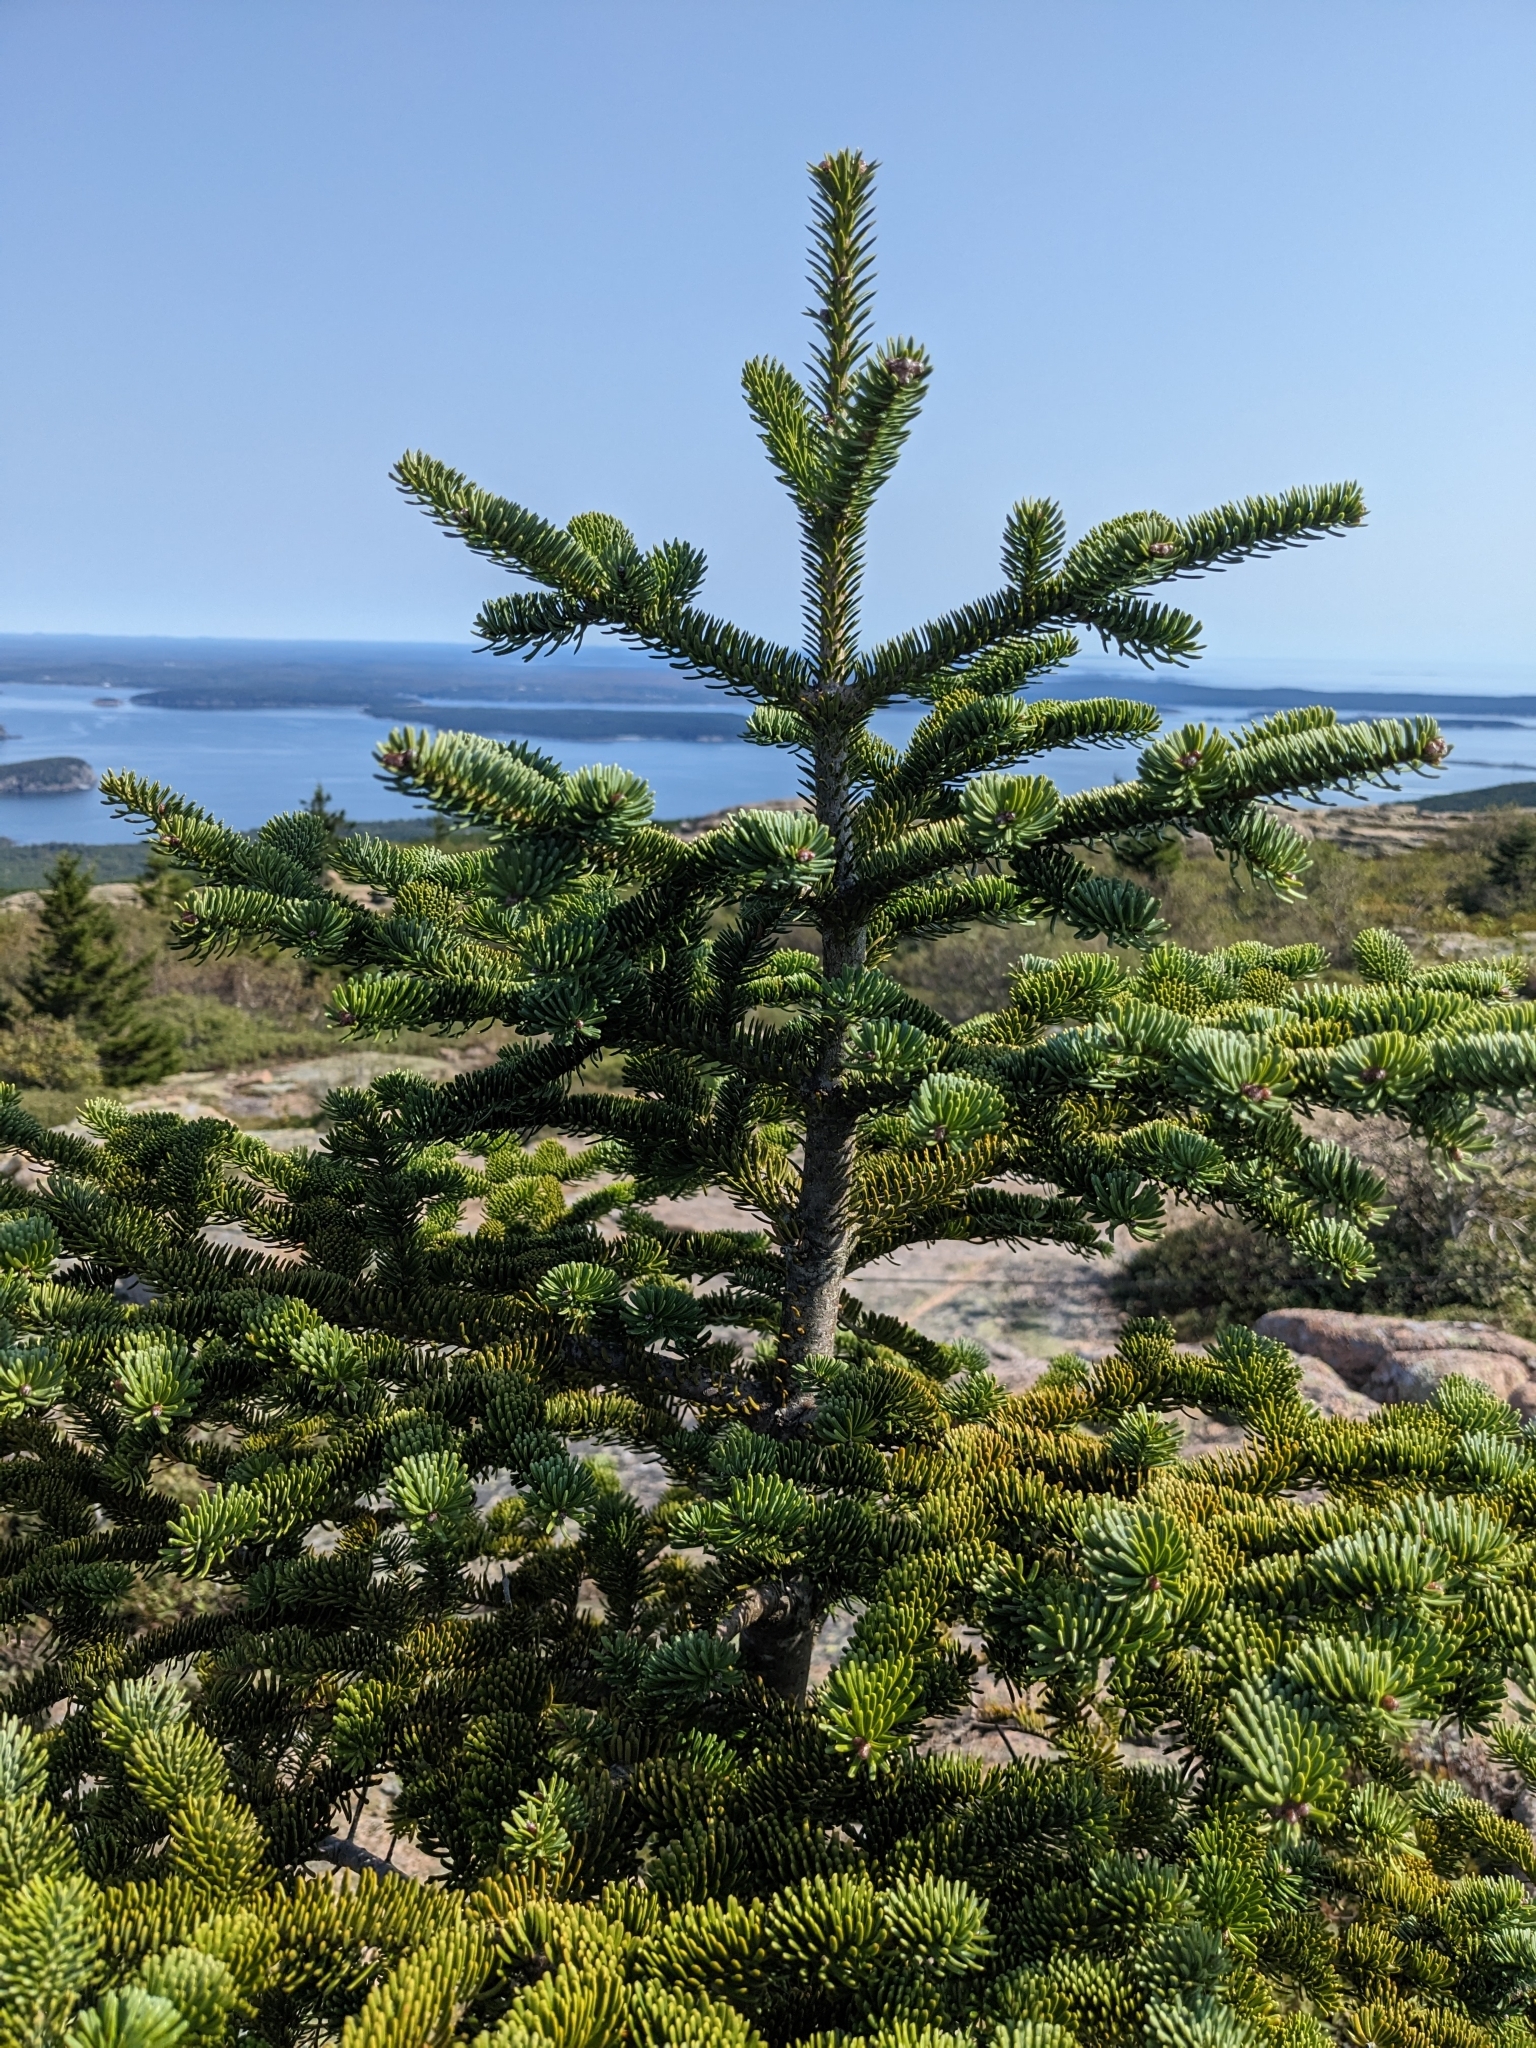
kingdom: Plantae
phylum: Tracheophyta
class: Pinopsida
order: Pinales
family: Pinaceae
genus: Abies
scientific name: Abies balsamea
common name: Balsam fir
